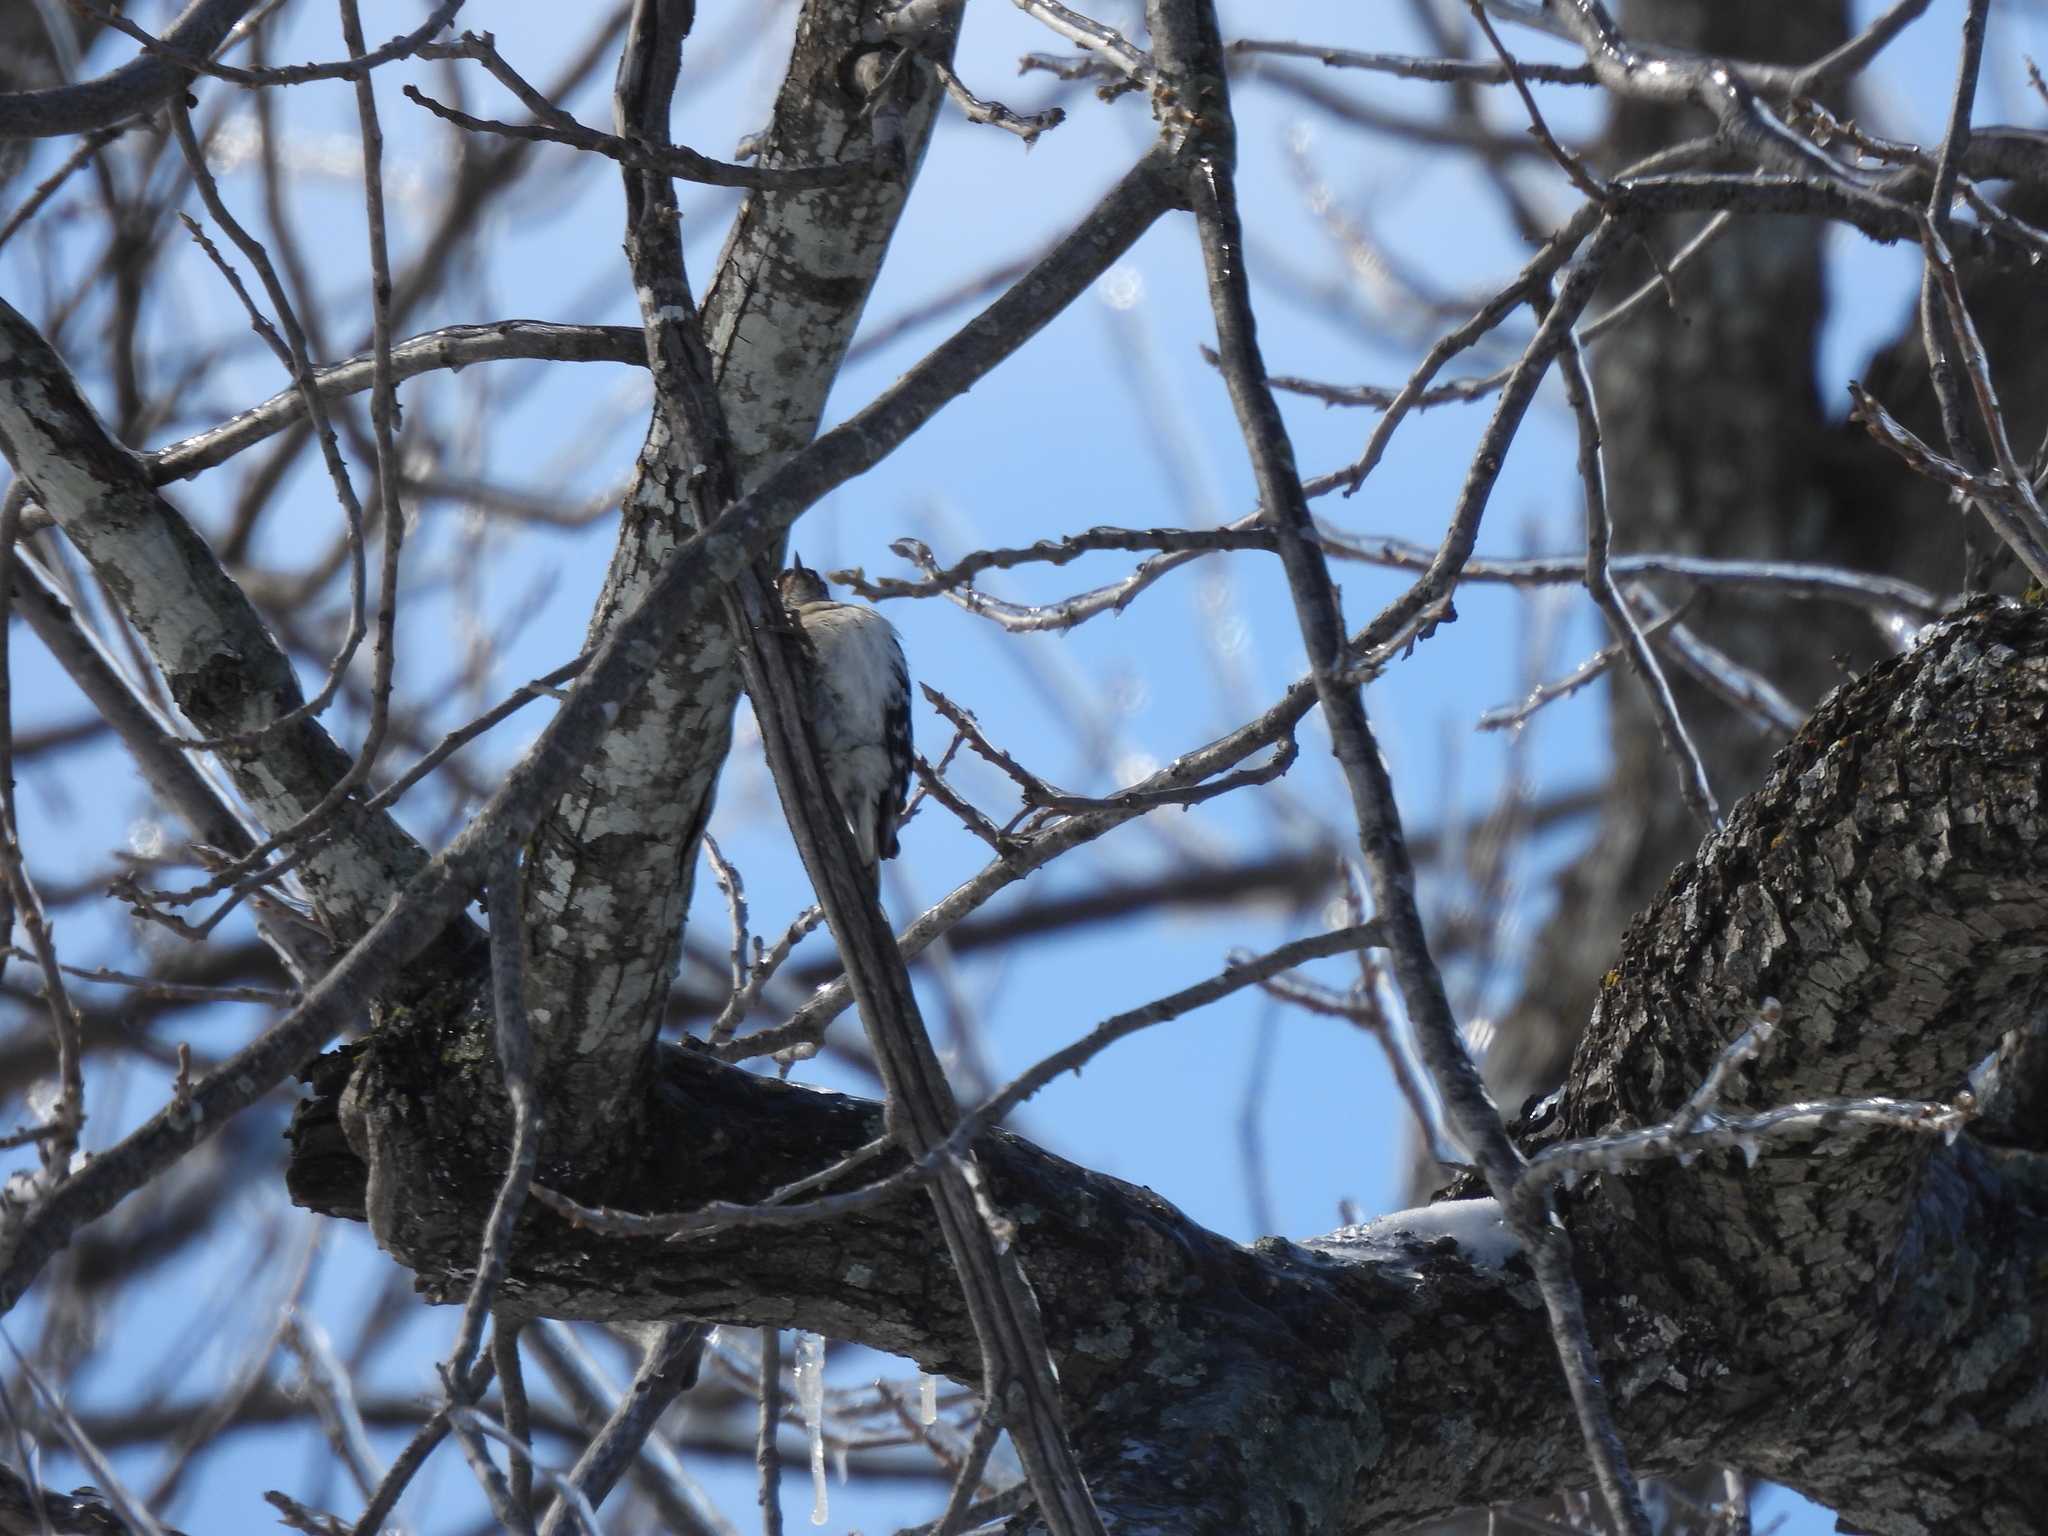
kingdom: Animalia
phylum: Chordata
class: Aves
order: Piciformes
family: Picidae
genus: Dryobates
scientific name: Dryobates pubescens
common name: Downy woodpecker
